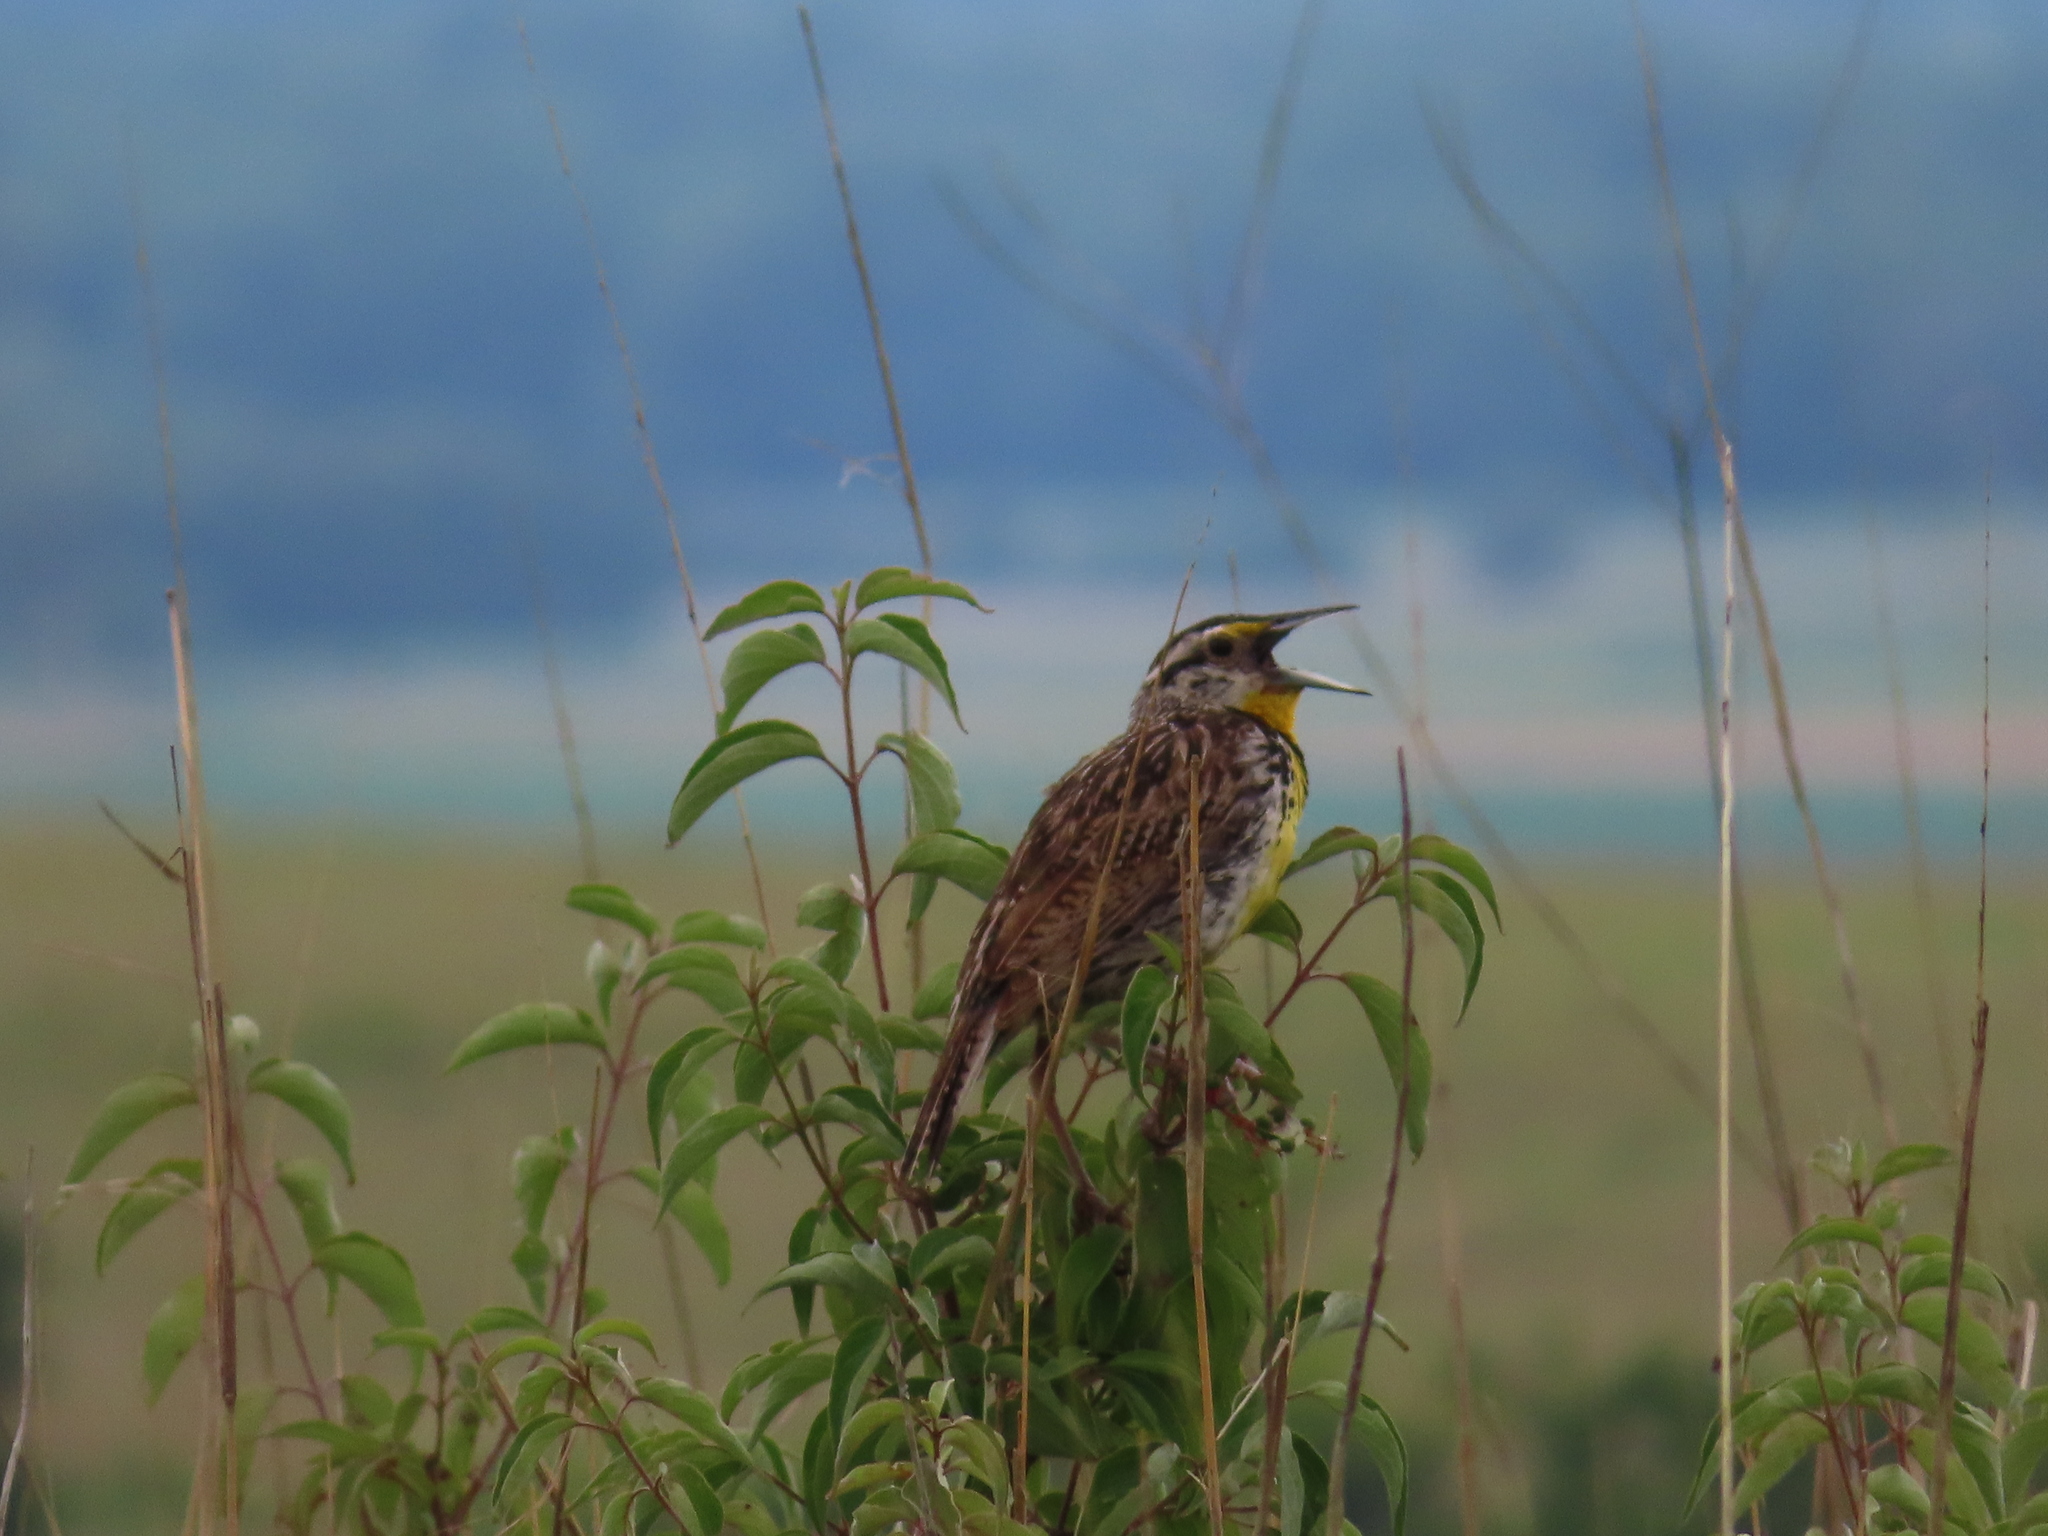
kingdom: Animalia
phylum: Chordata
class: Aves
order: Passeriformes
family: Icteridae
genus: Sturnella
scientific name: Sturnella magna
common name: Eastern meadowlark
